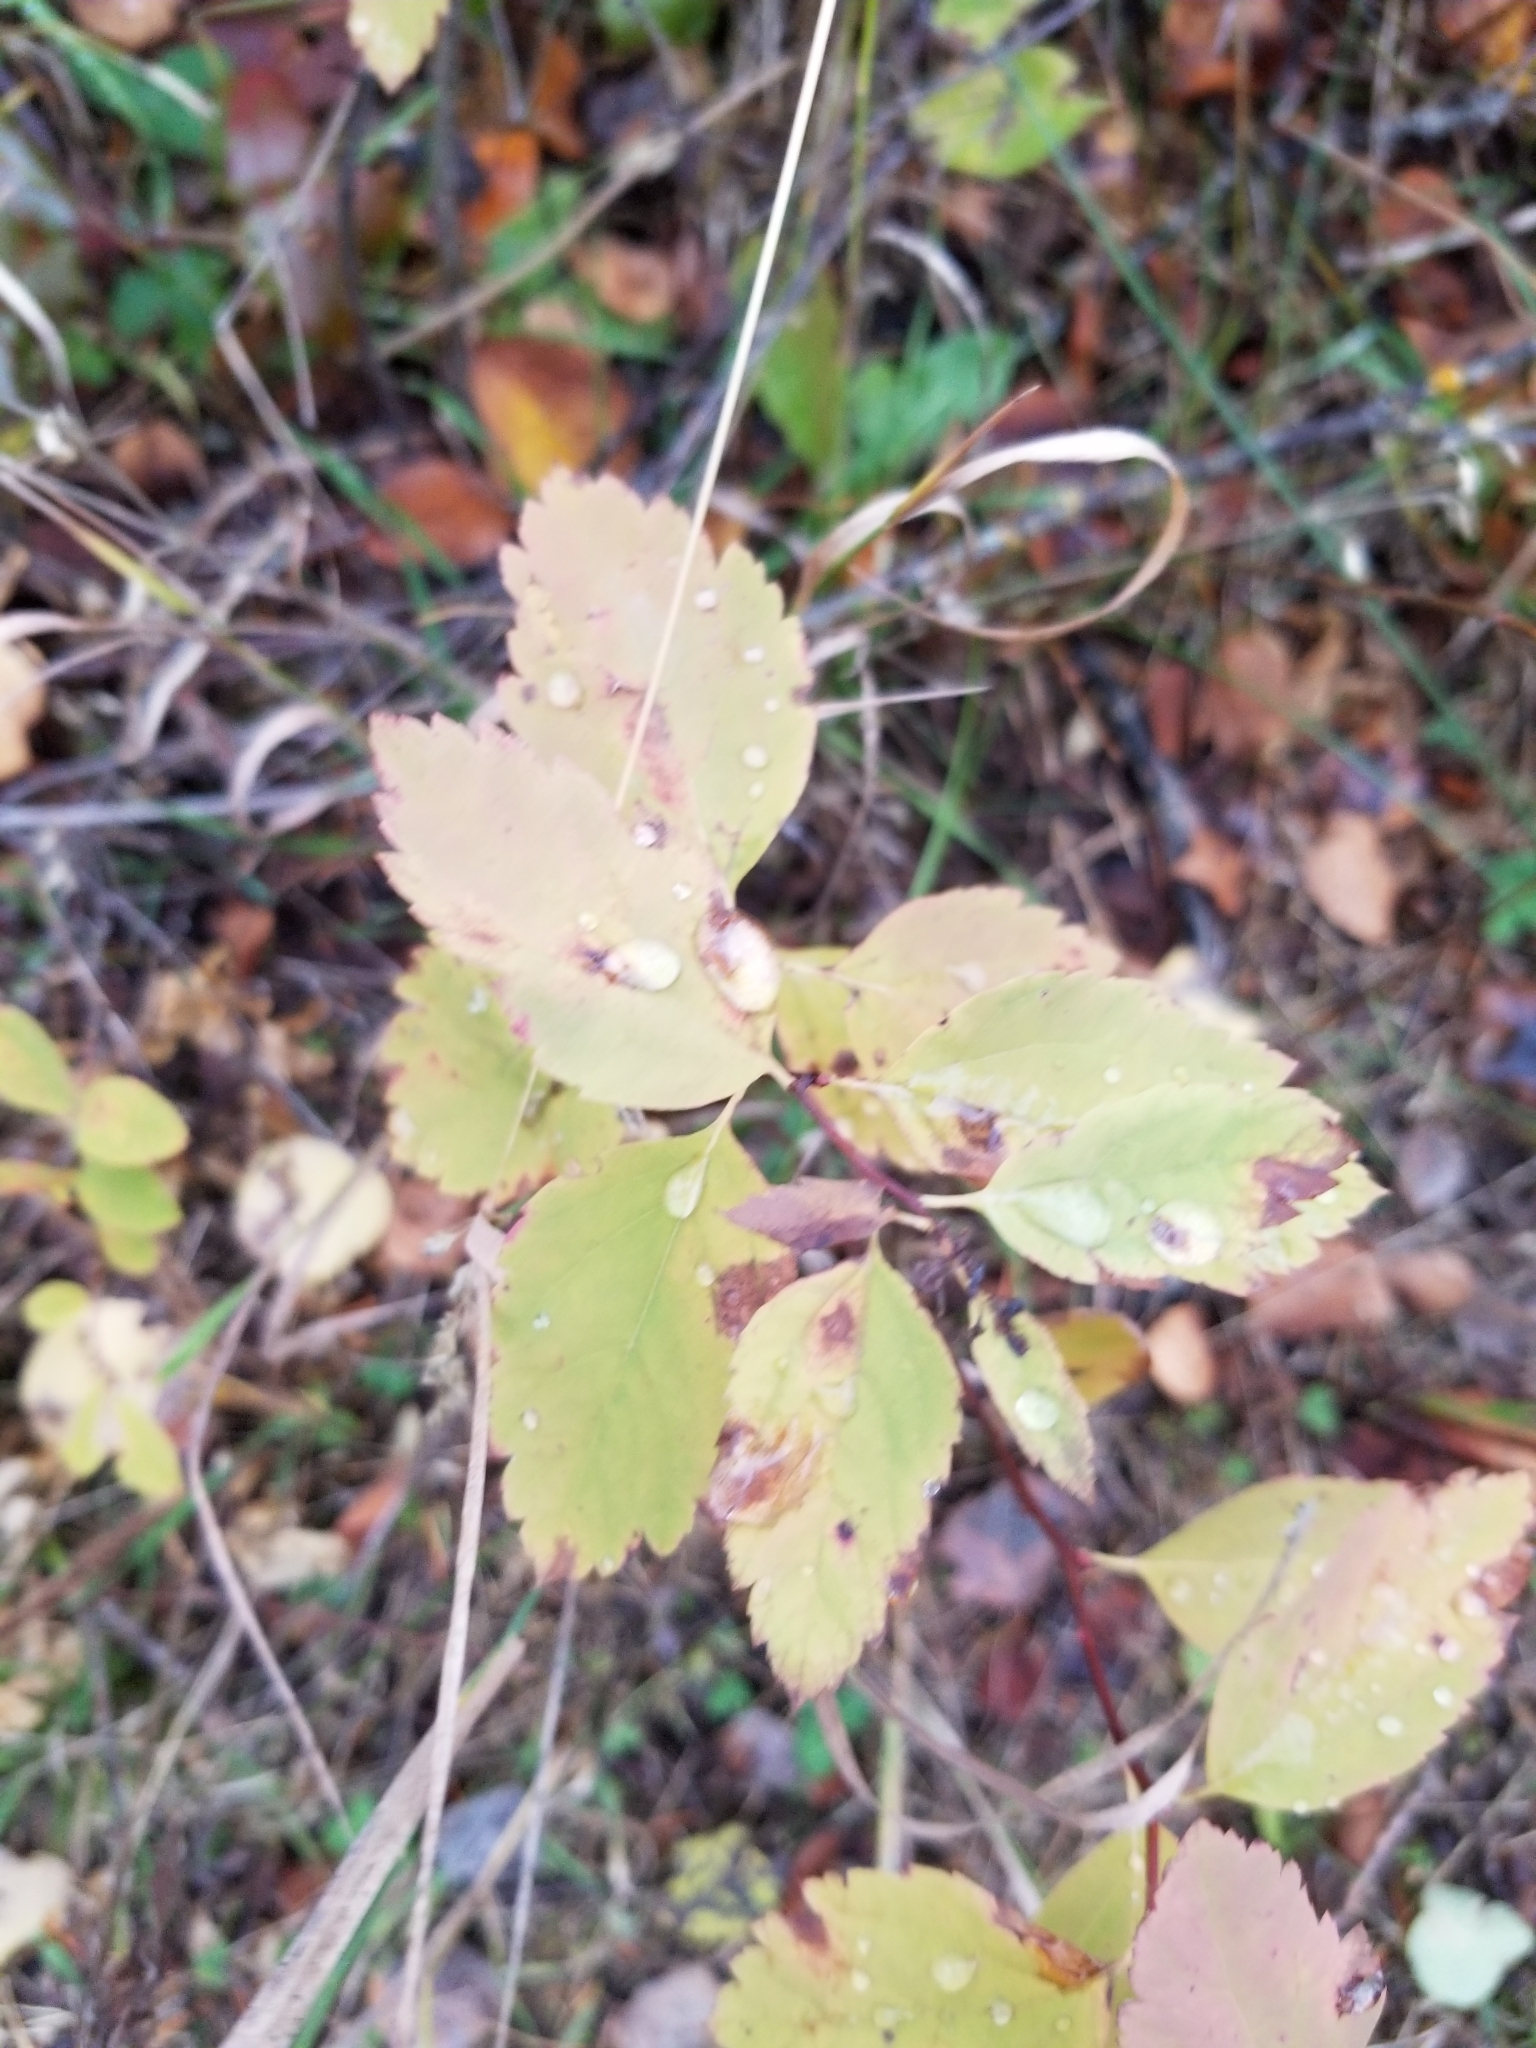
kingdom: Plantae
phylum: Tracheophyta
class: Magnoliopsida
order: Rosales
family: Rosaceae
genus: Spiraea
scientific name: Spiraea lucida
